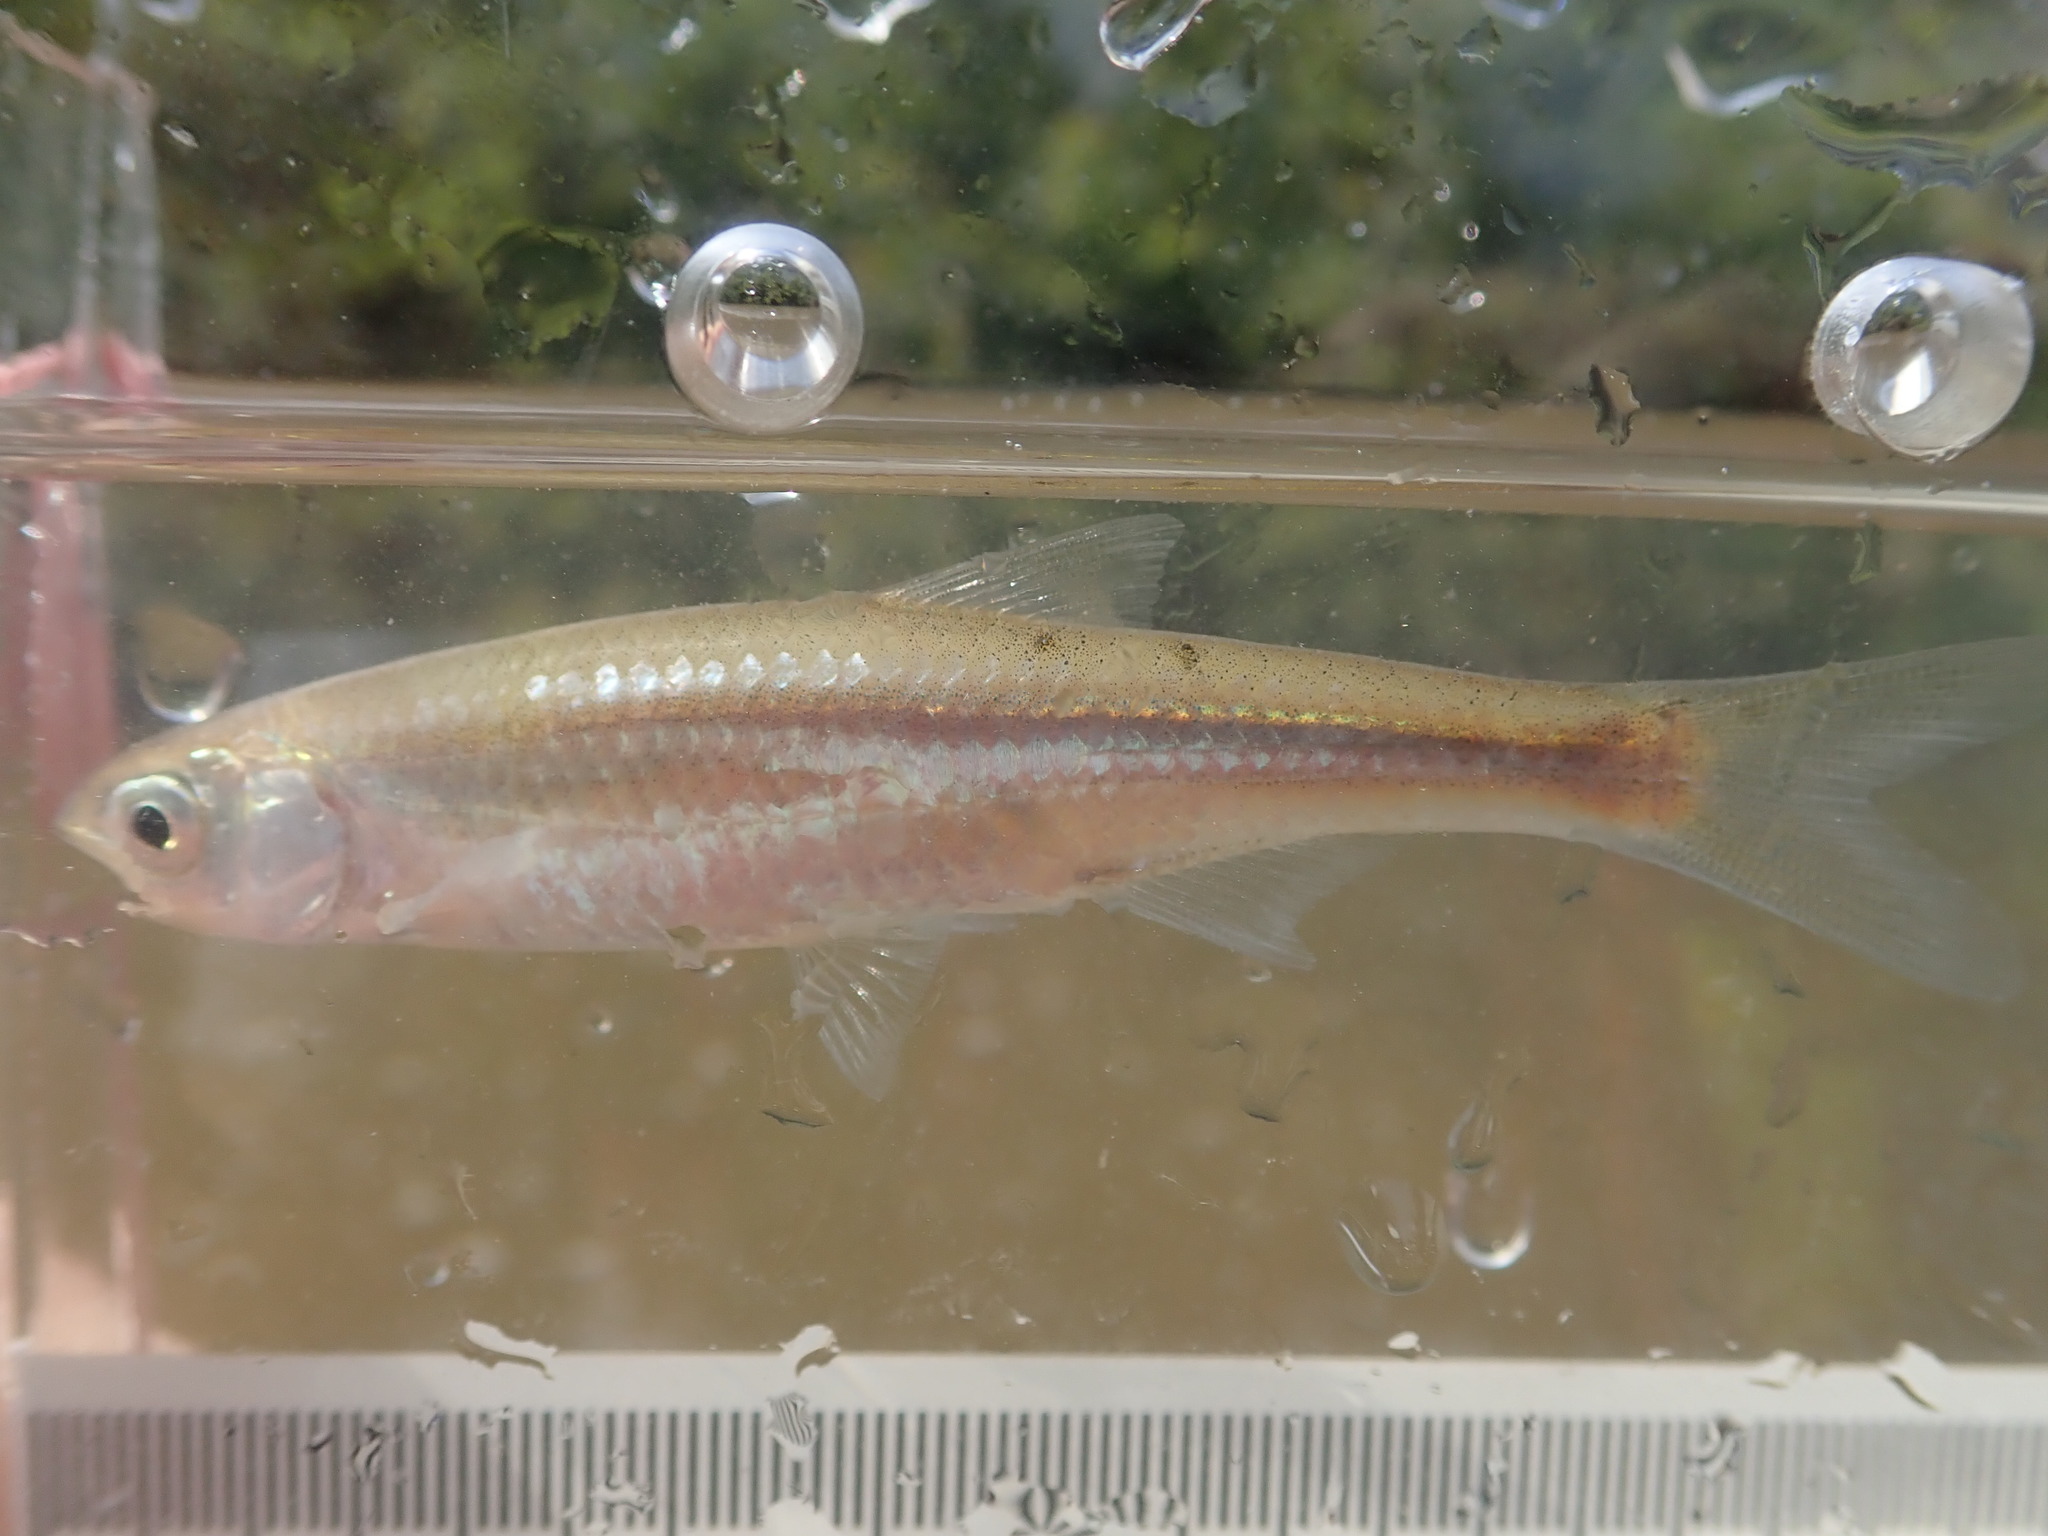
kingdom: Animalia
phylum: Chordata
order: Cypriniformes
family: Cyprinidae
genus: Notropis
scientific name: Notropis atherinoides
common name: Emerald shiner
